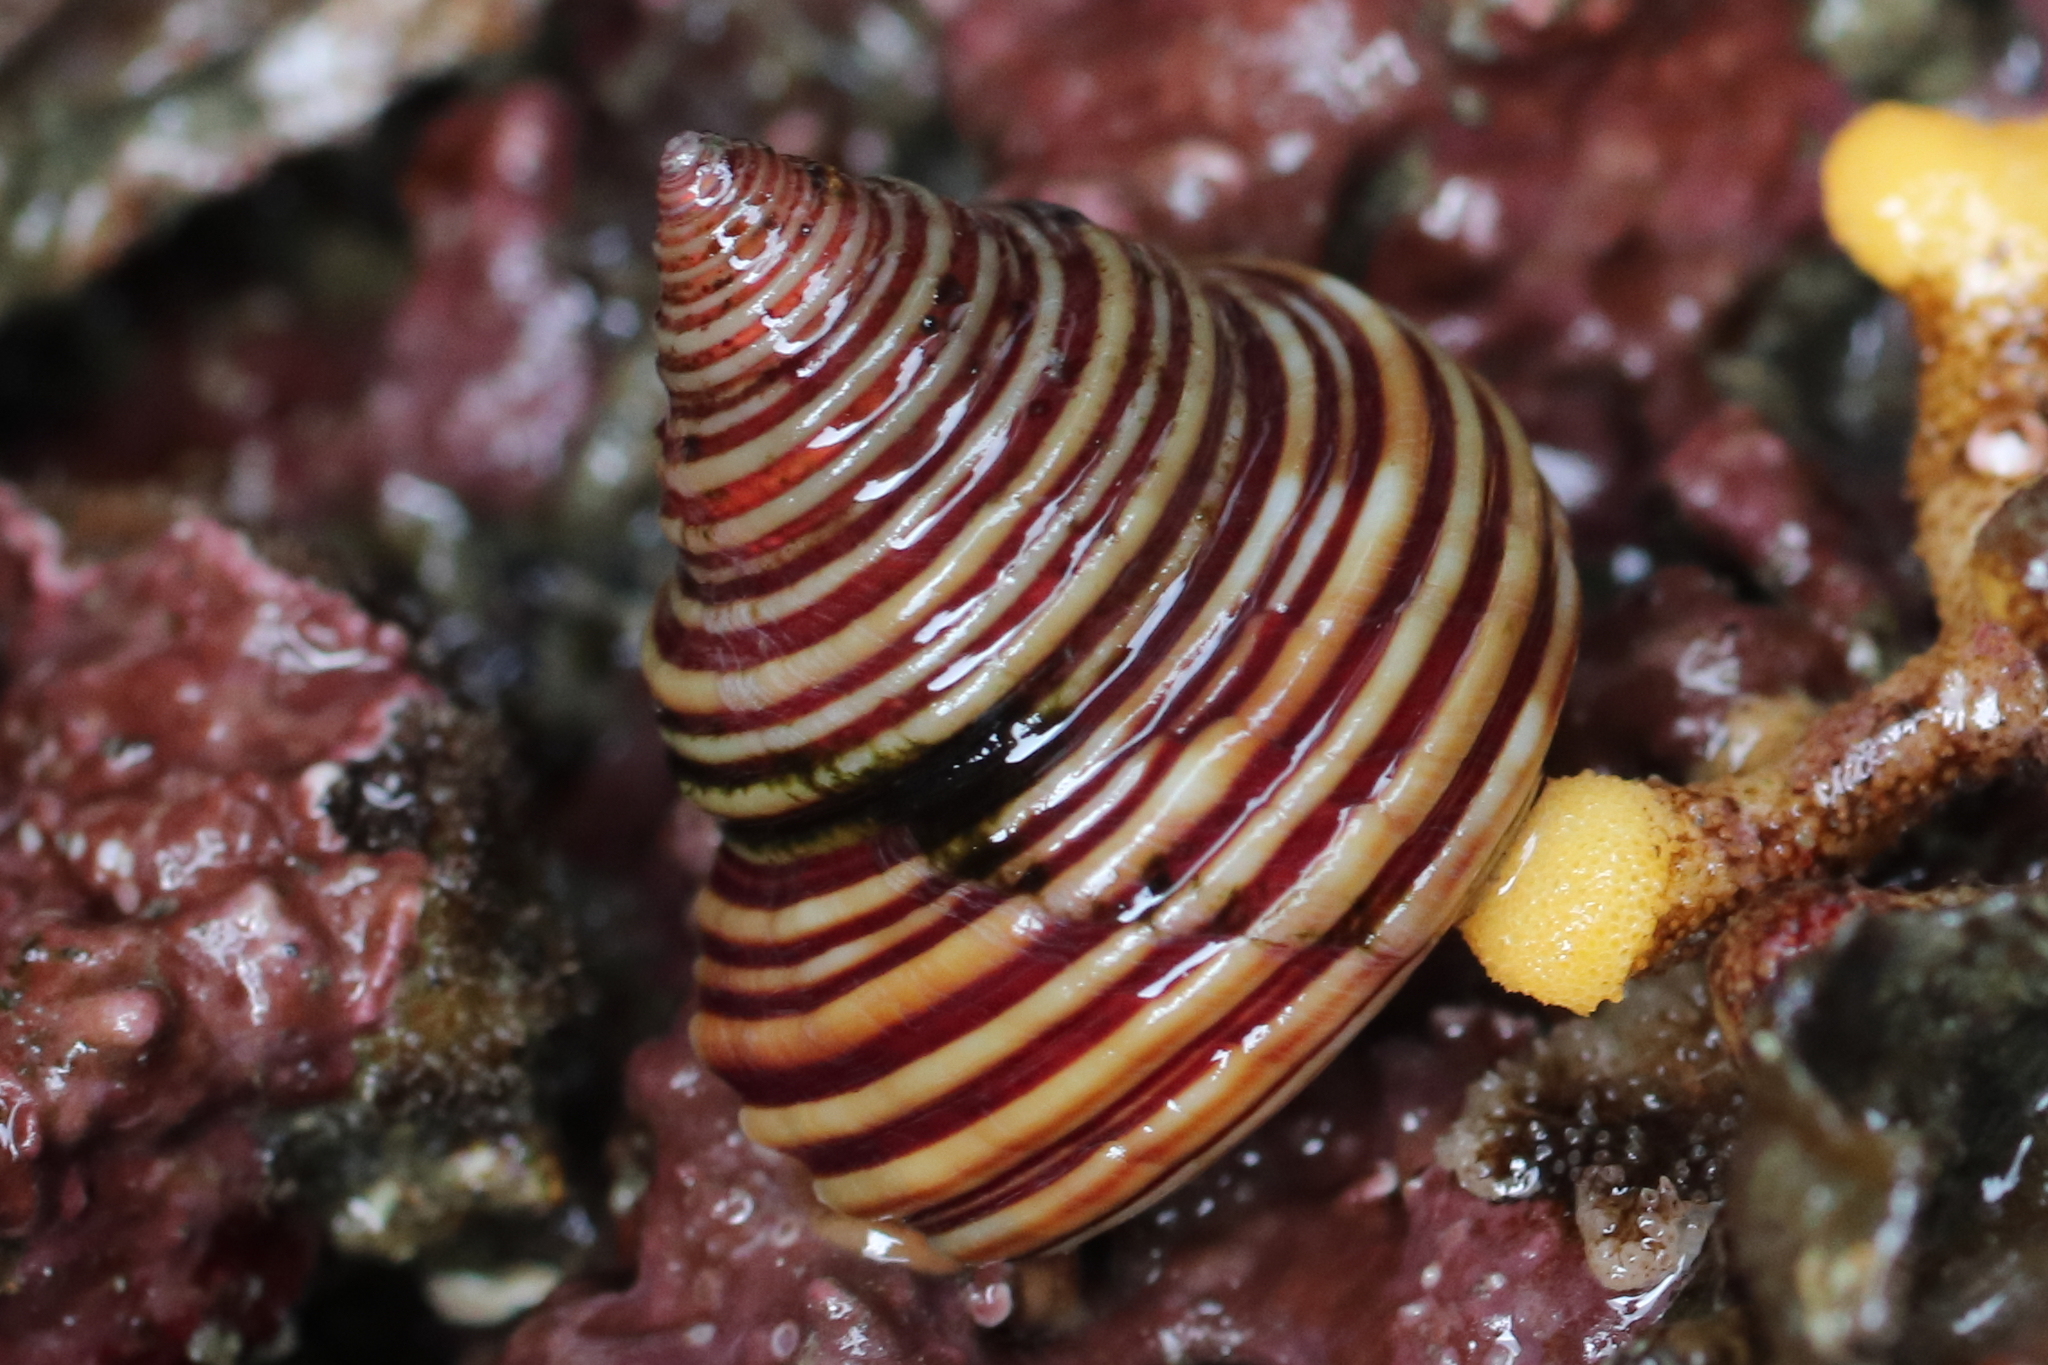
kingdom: Animalia
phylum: Mollusca
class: Gastropoda
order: Trochida
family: Calliostomatidae
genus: Calliostoma
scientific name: Calliostoma ligatum
